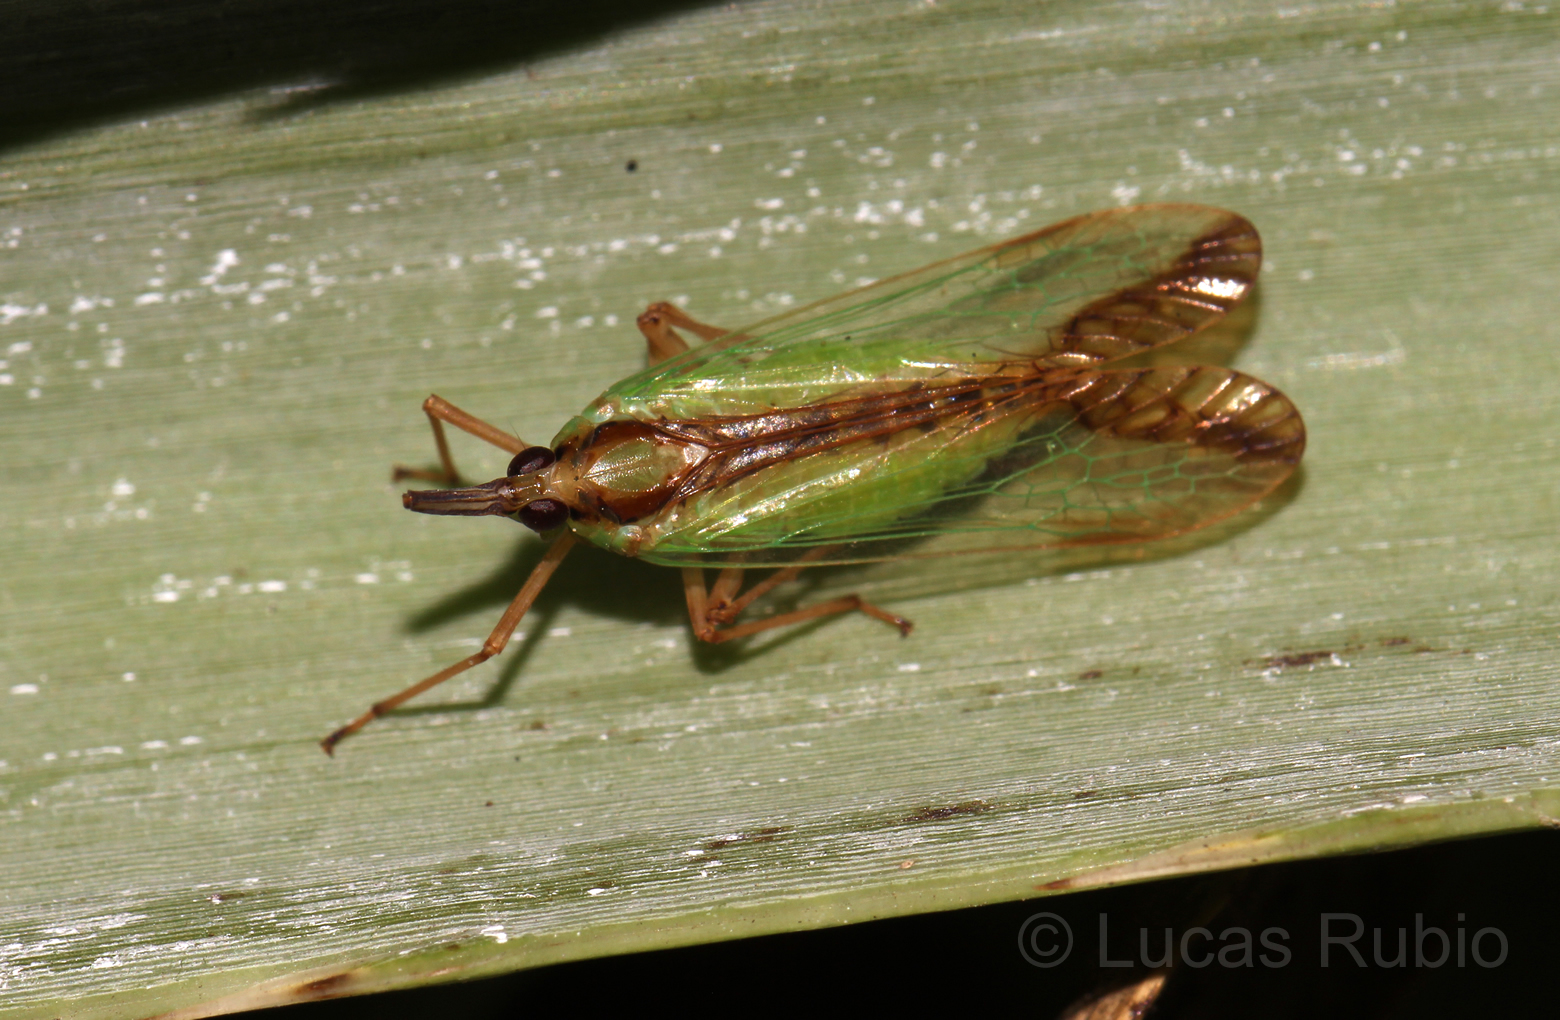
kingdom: Animalia
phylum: Arthropoda
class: Insecta
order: Hemiptera
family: Dictyopharidae
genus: Paramisia
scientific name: Paramisia
